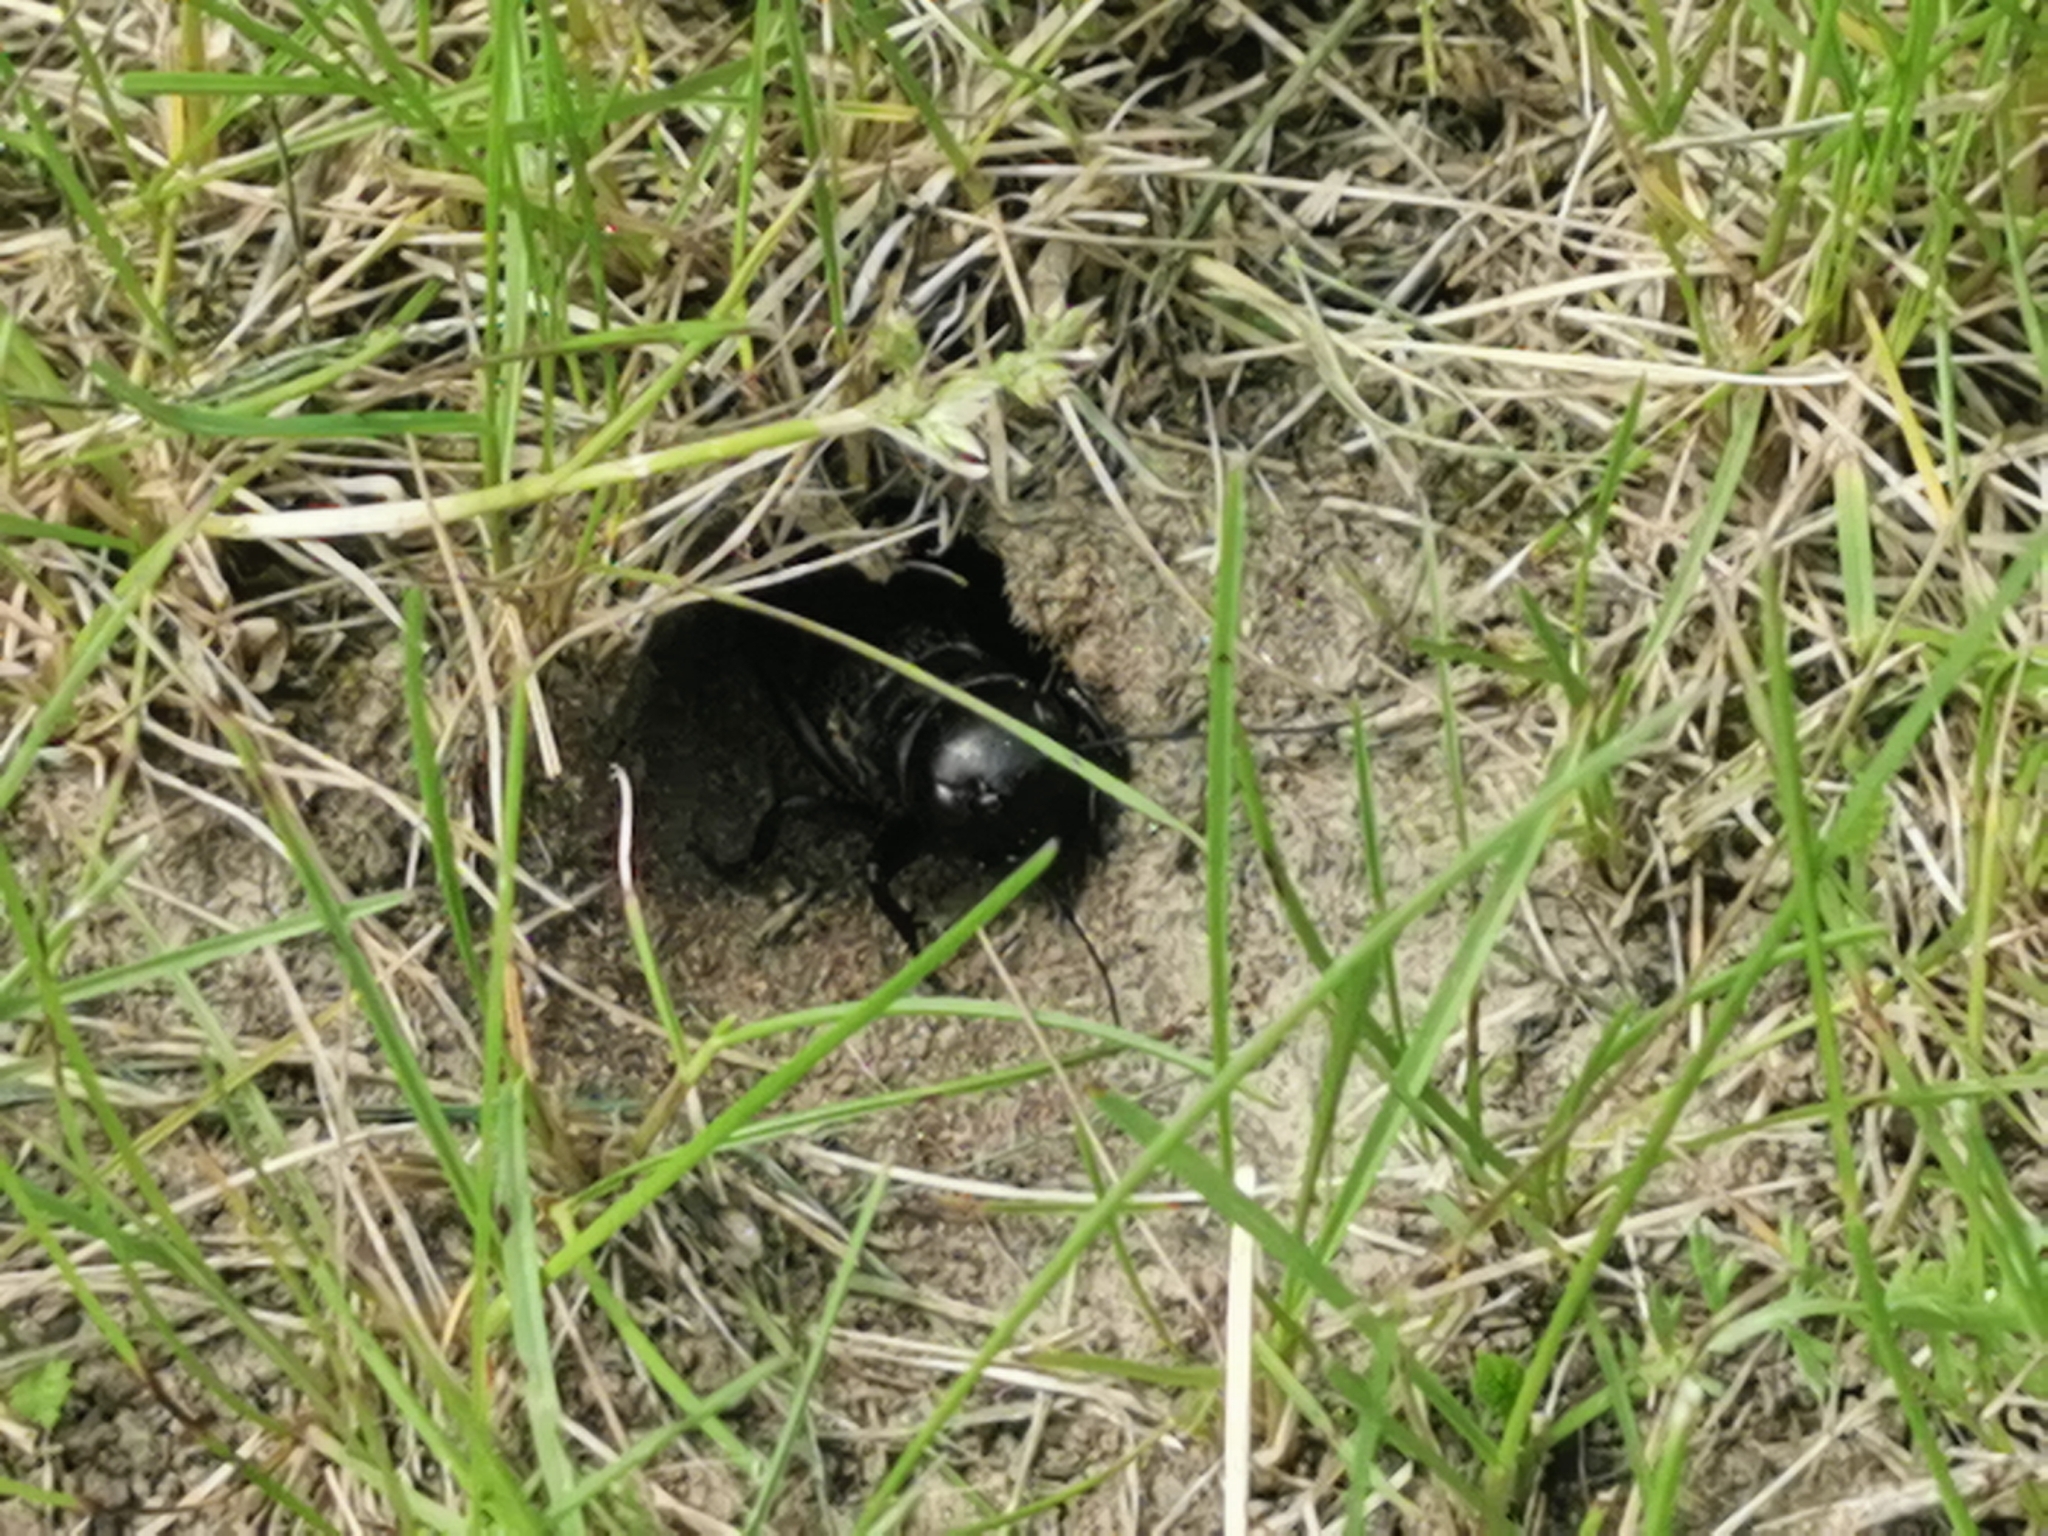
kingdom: Animalia
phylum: Arthropoda
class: Insecta
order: Orthoptera
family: Gryllidae
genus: Gryllus
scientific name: Gryllus campestris
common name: Field cricket
